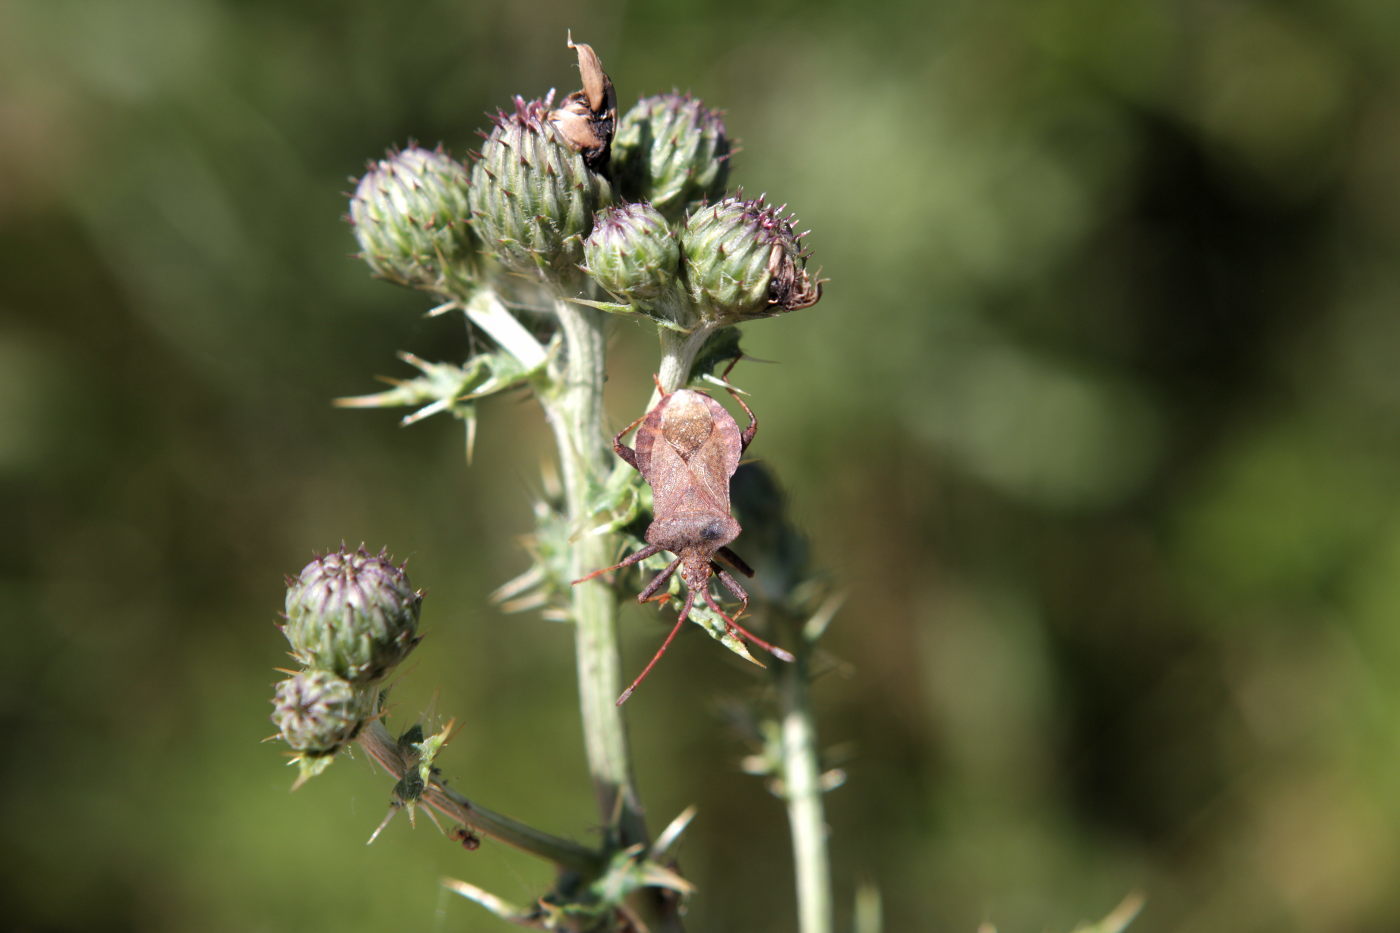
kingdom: Animalia
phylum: Arthropoda
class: Insecta
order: Hemiptera
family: Coreidae
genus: Coreus
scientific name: Coreus marginatus
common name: Dock bug
